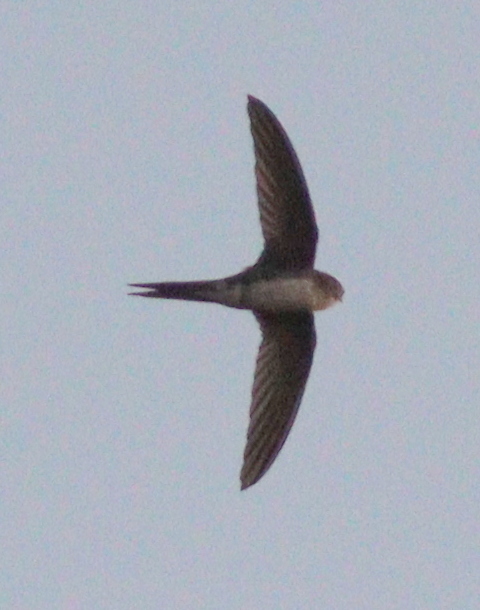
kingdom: Animalia
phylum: Chordata
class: Aves
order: Apodiformes
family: Apodidae
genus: Tachornis
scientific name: Tachornis squamata
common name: Neotropical palm swift
